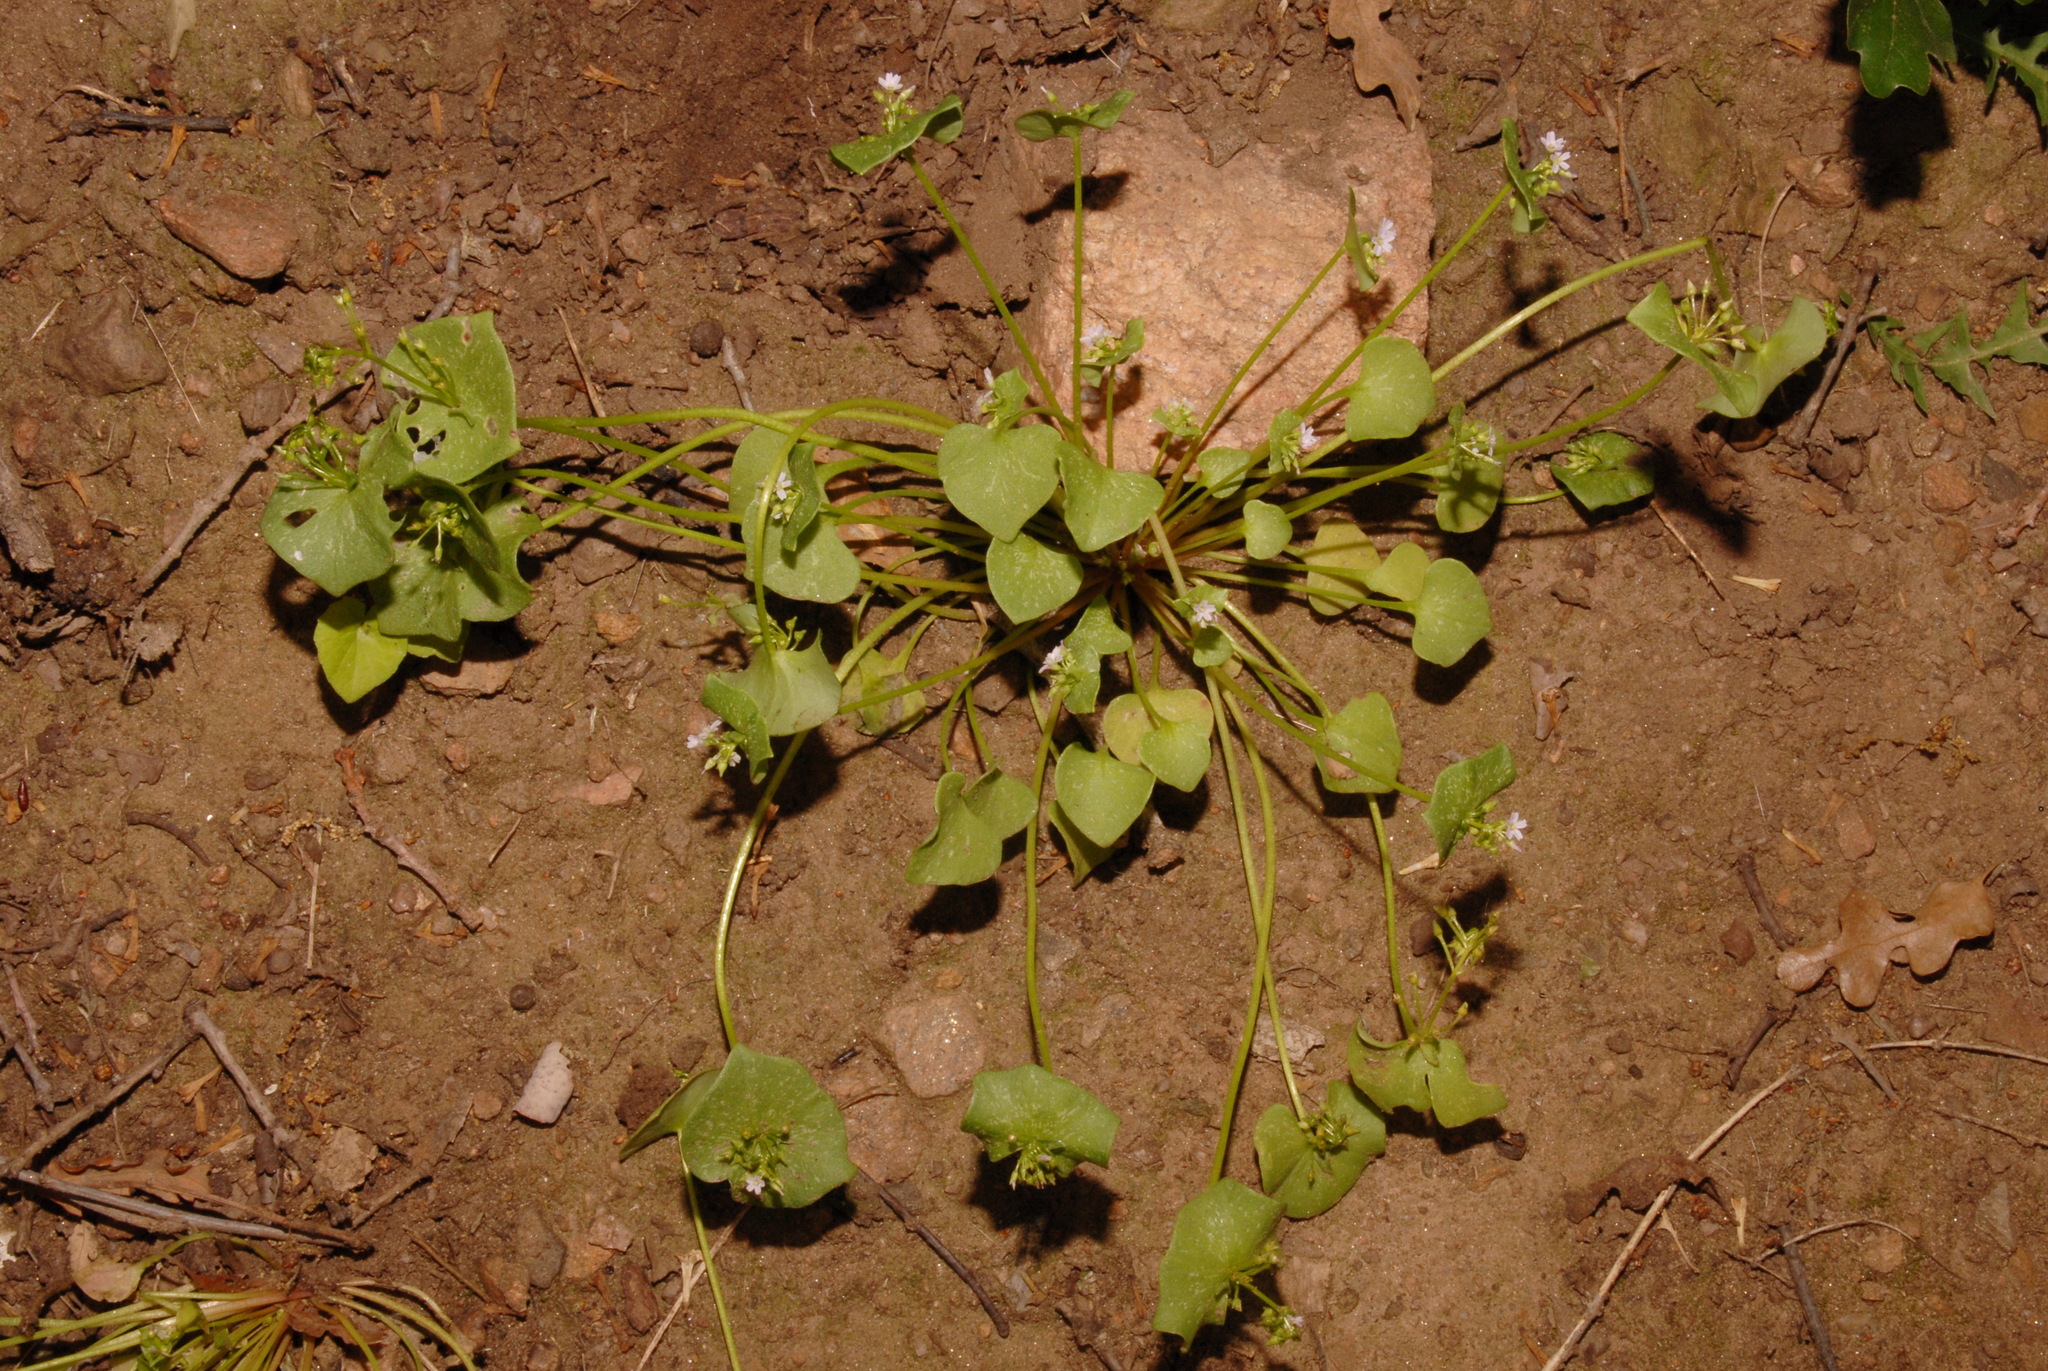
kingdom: Plantae
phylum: Tracheophyta
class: Magnoliopsida
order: Caryophyllales
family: Montiaceae
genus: Claytonia
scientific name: Claytonia rubra
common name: Erubescent miner's-lettuce
